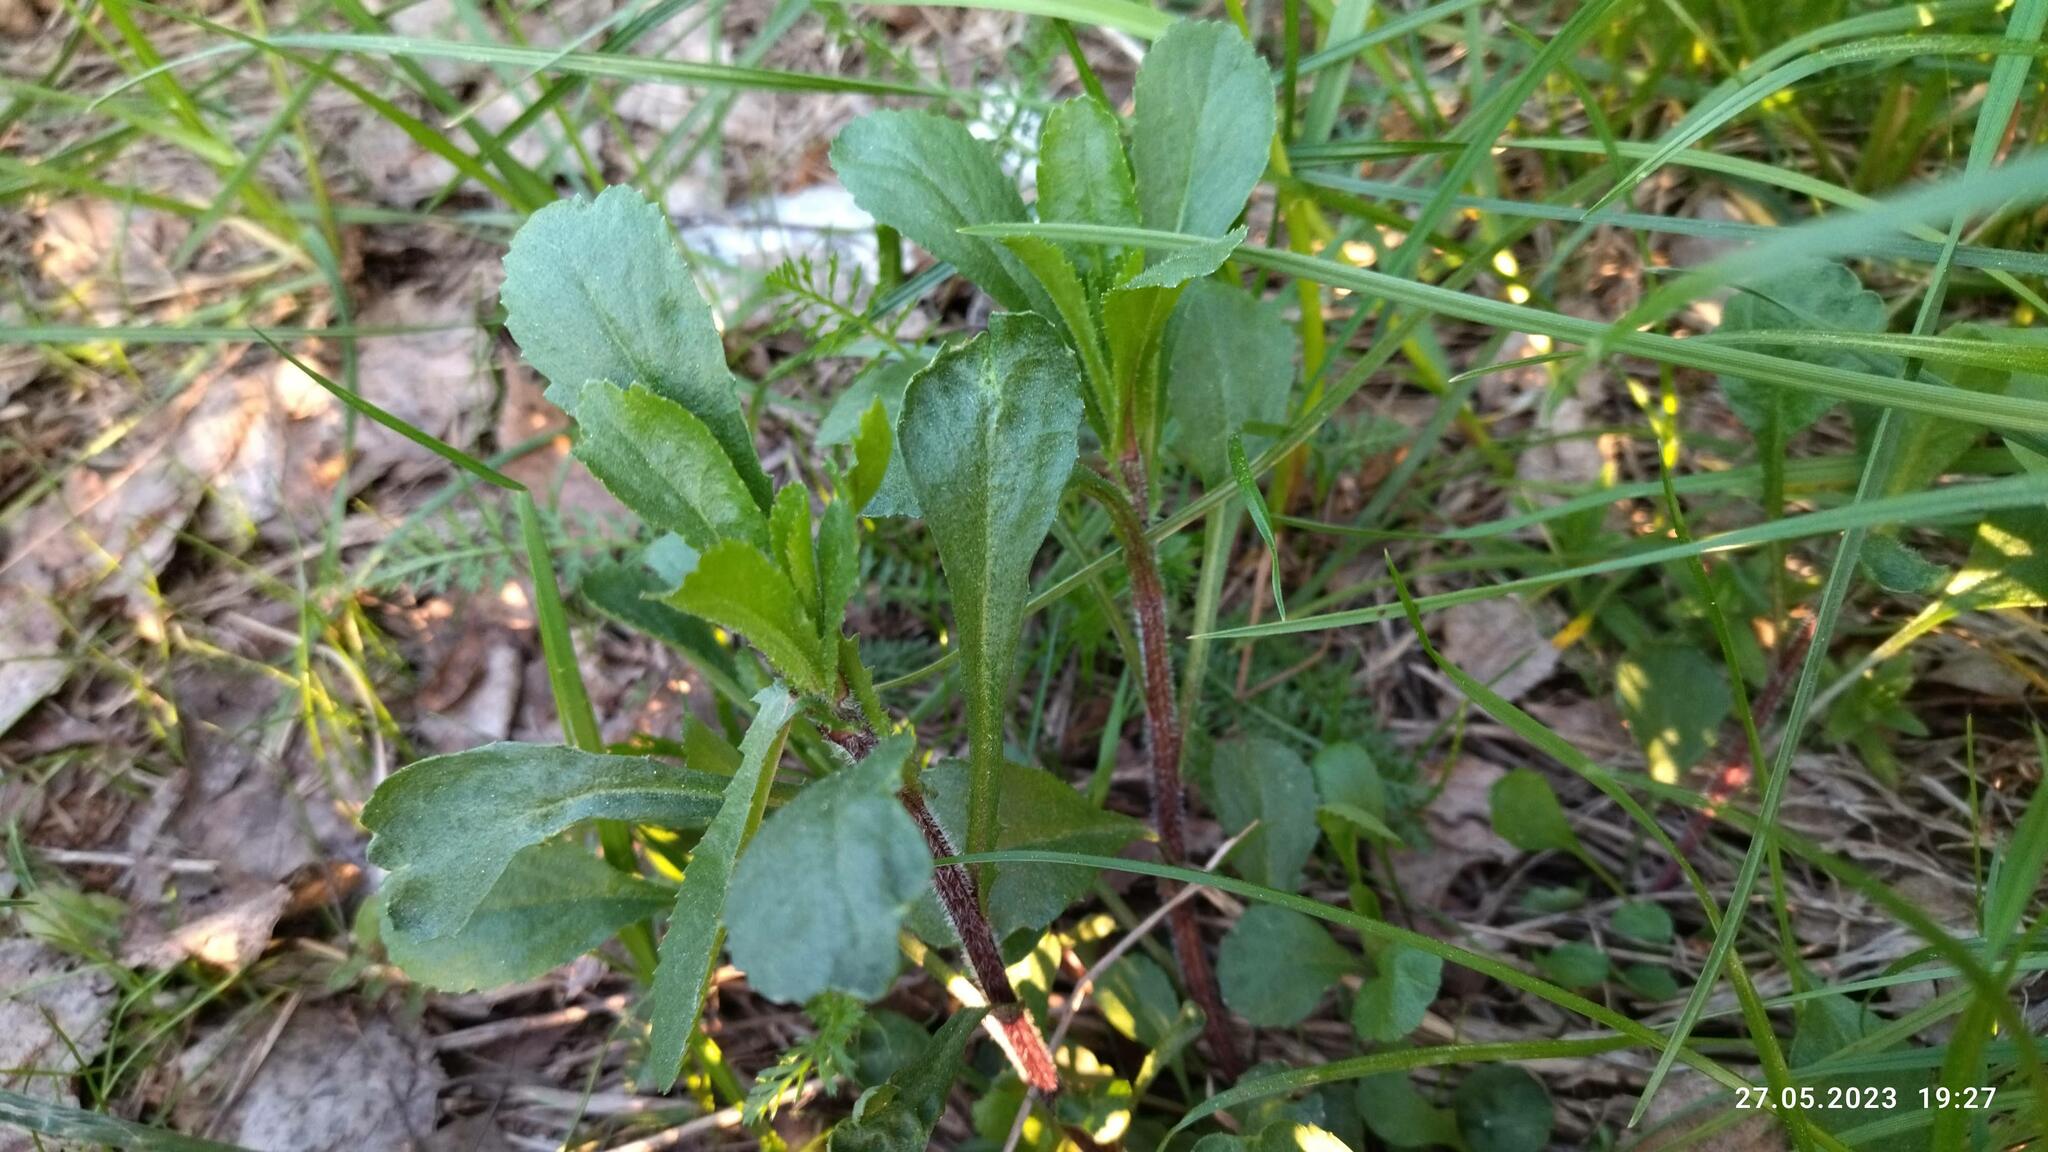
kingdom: Plantae
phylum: Tracheophyta
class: Magnoliopsida
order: Asterales
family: Asteraceae
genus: Leucanthemum
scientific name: Leucanthemum vulgare
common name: Oxeye daisy
